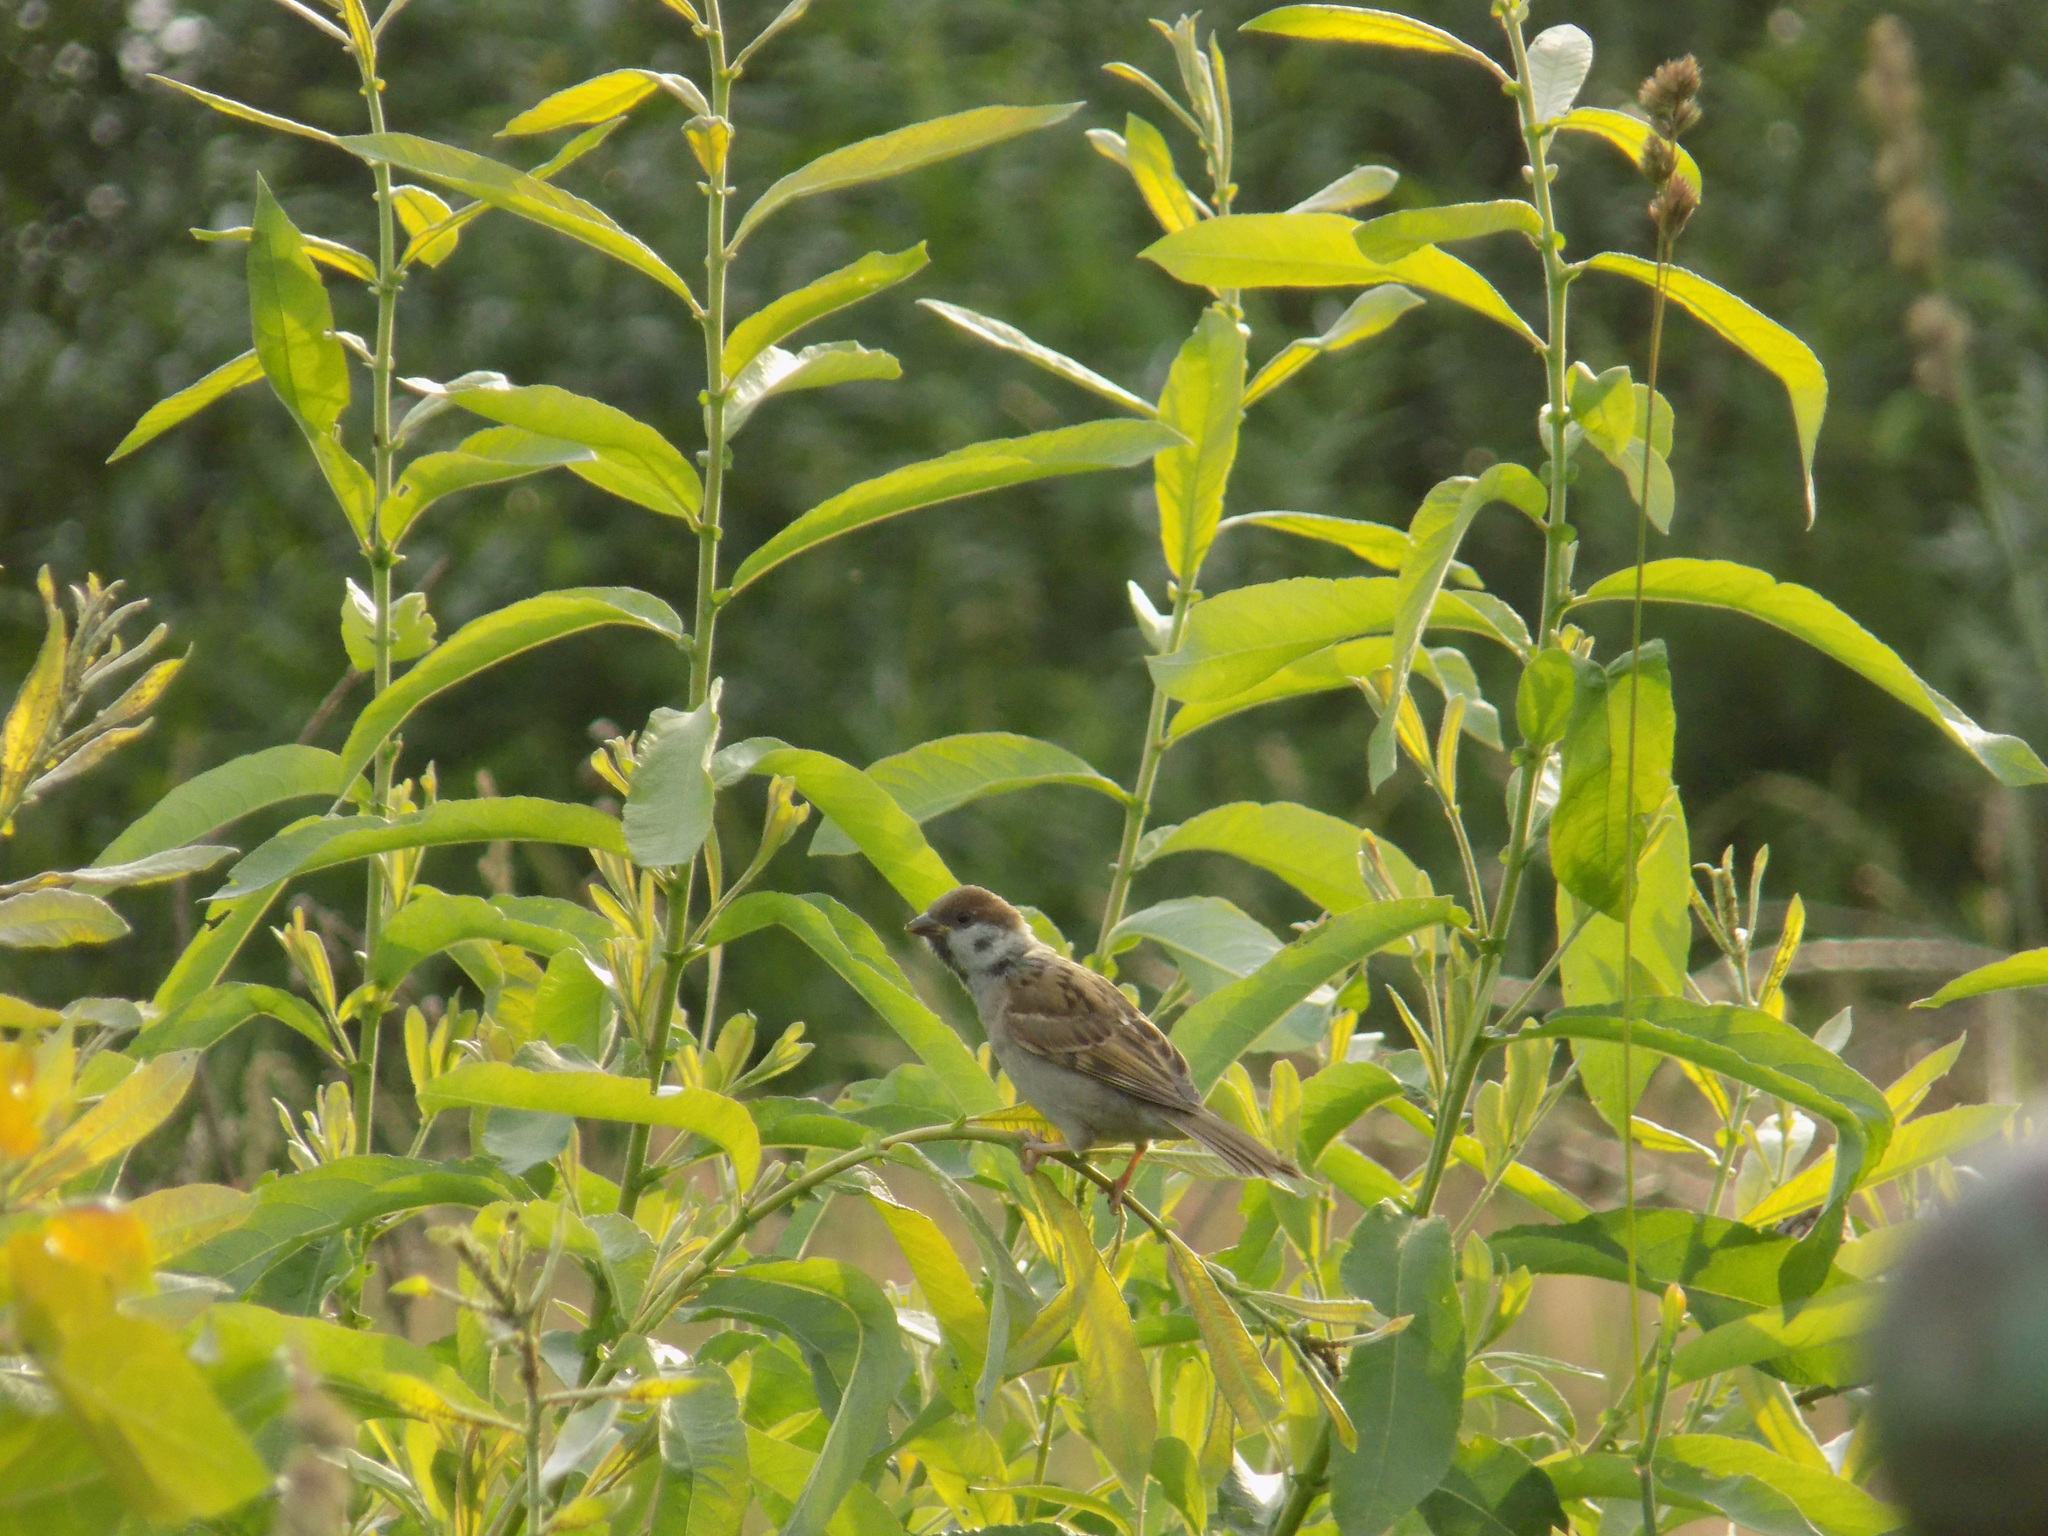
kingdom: Animalia
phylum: Chordata
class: Aves
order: Passeriformes
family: Passeridae
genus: Passer
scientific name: Passer montanus
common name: Eurasian tree sparrow
